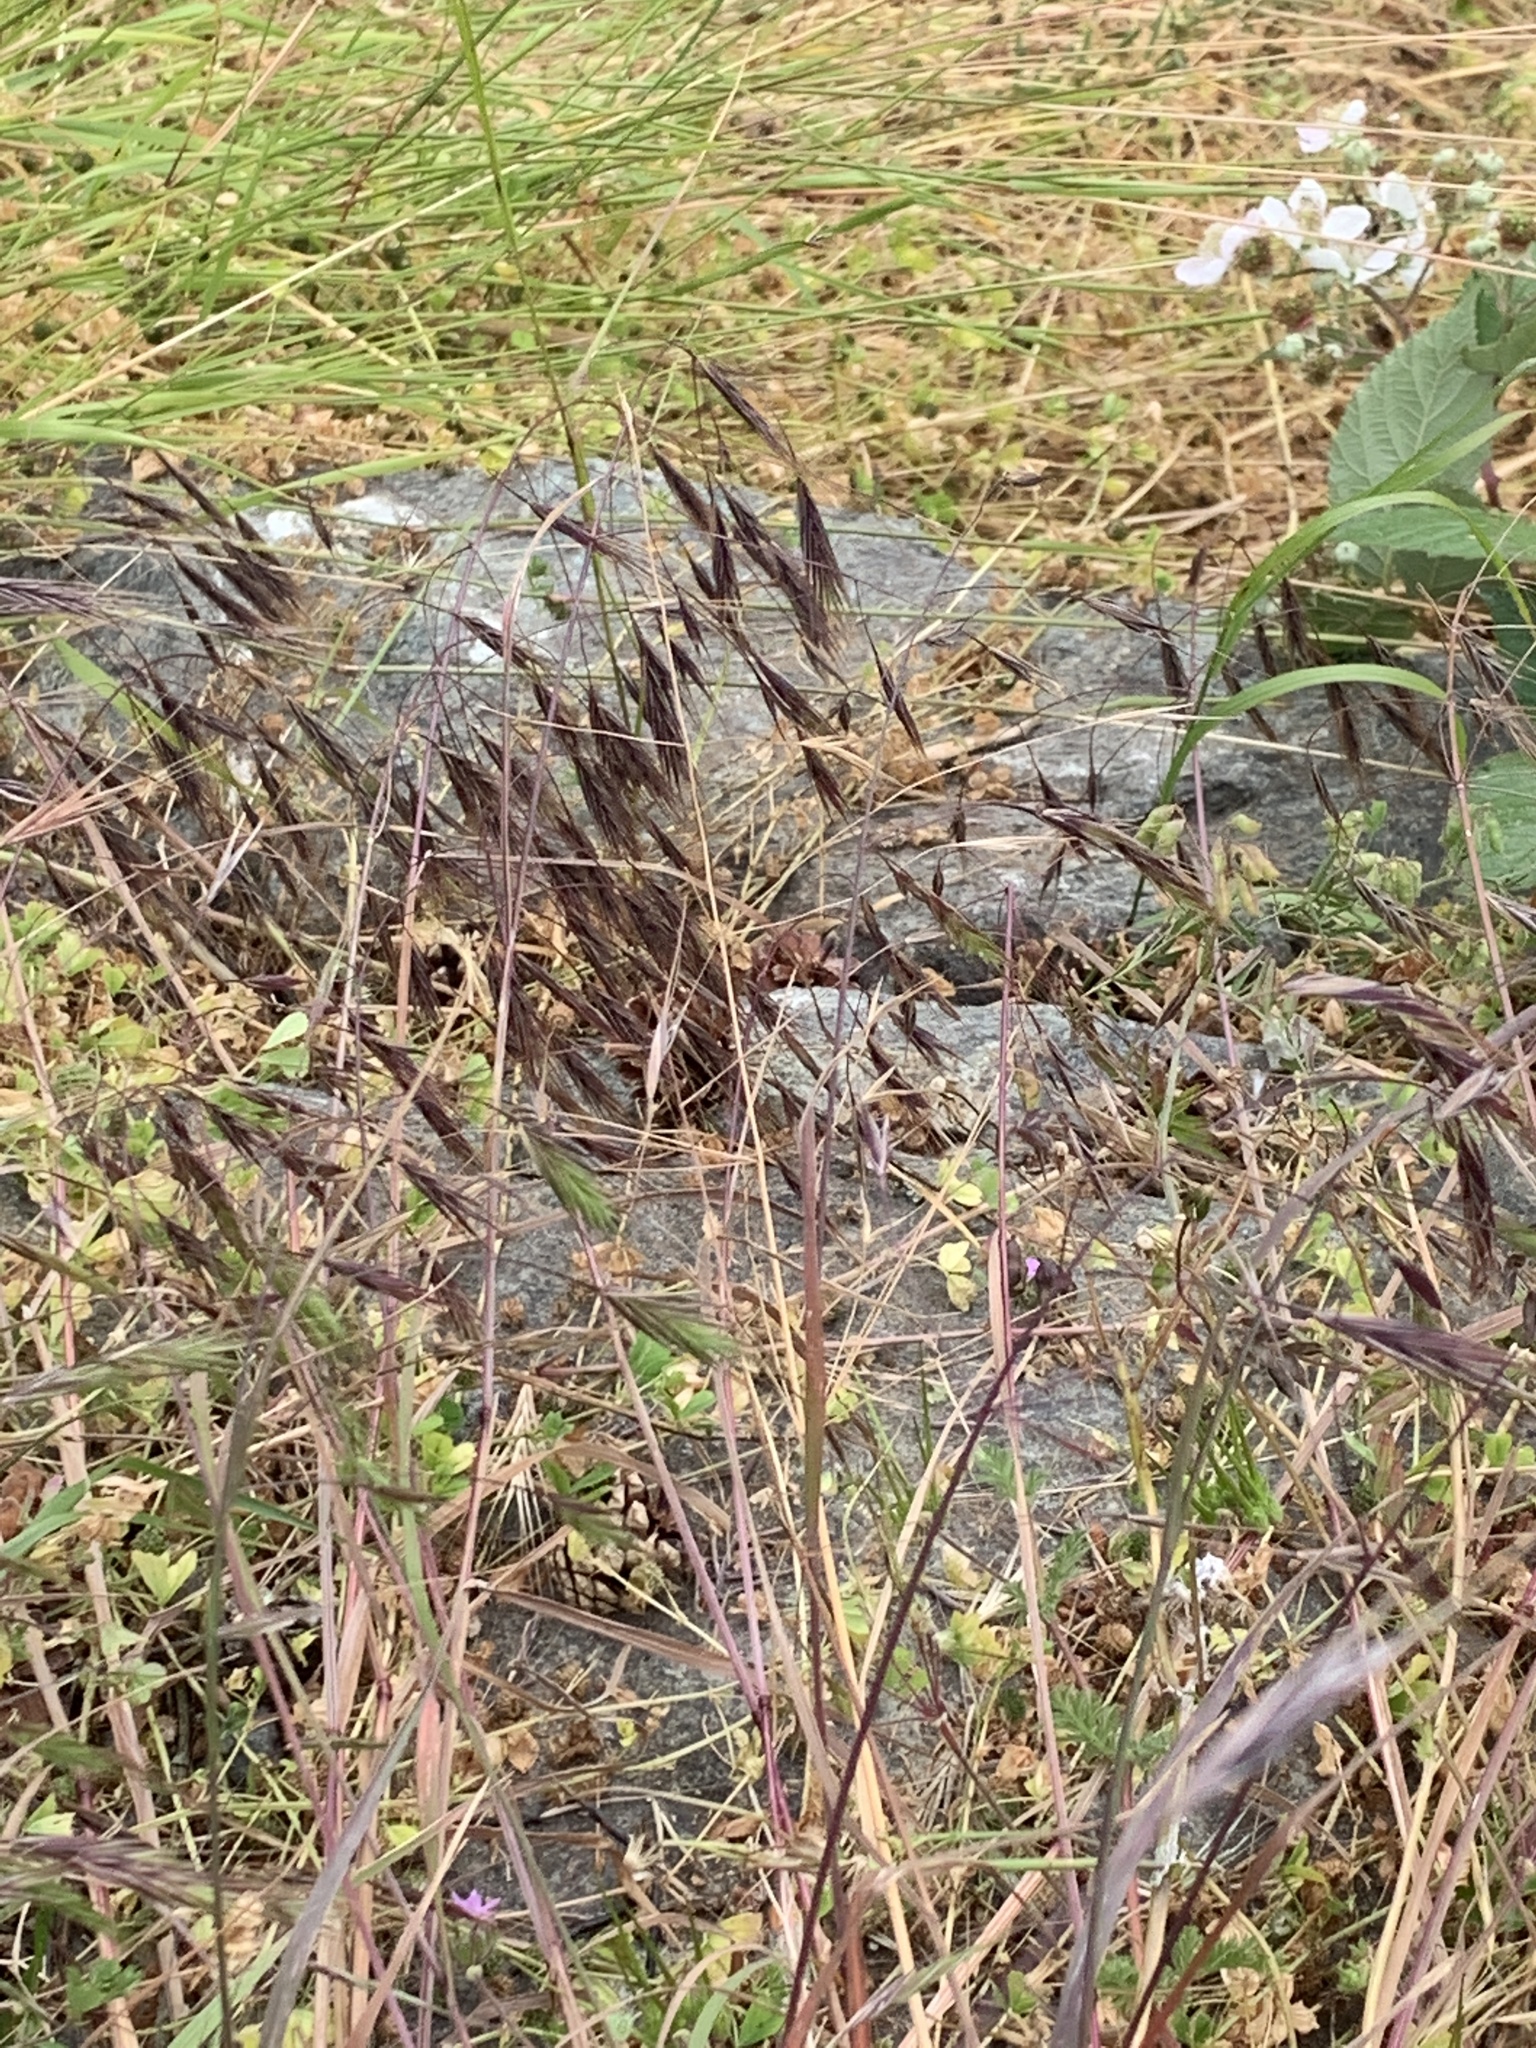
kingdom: Plantae
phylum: Tracheophyta
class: Liliopsida
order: Poales
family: Poaceae
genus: Bromus
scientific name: Bromus sterilis
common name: Poverty brome
